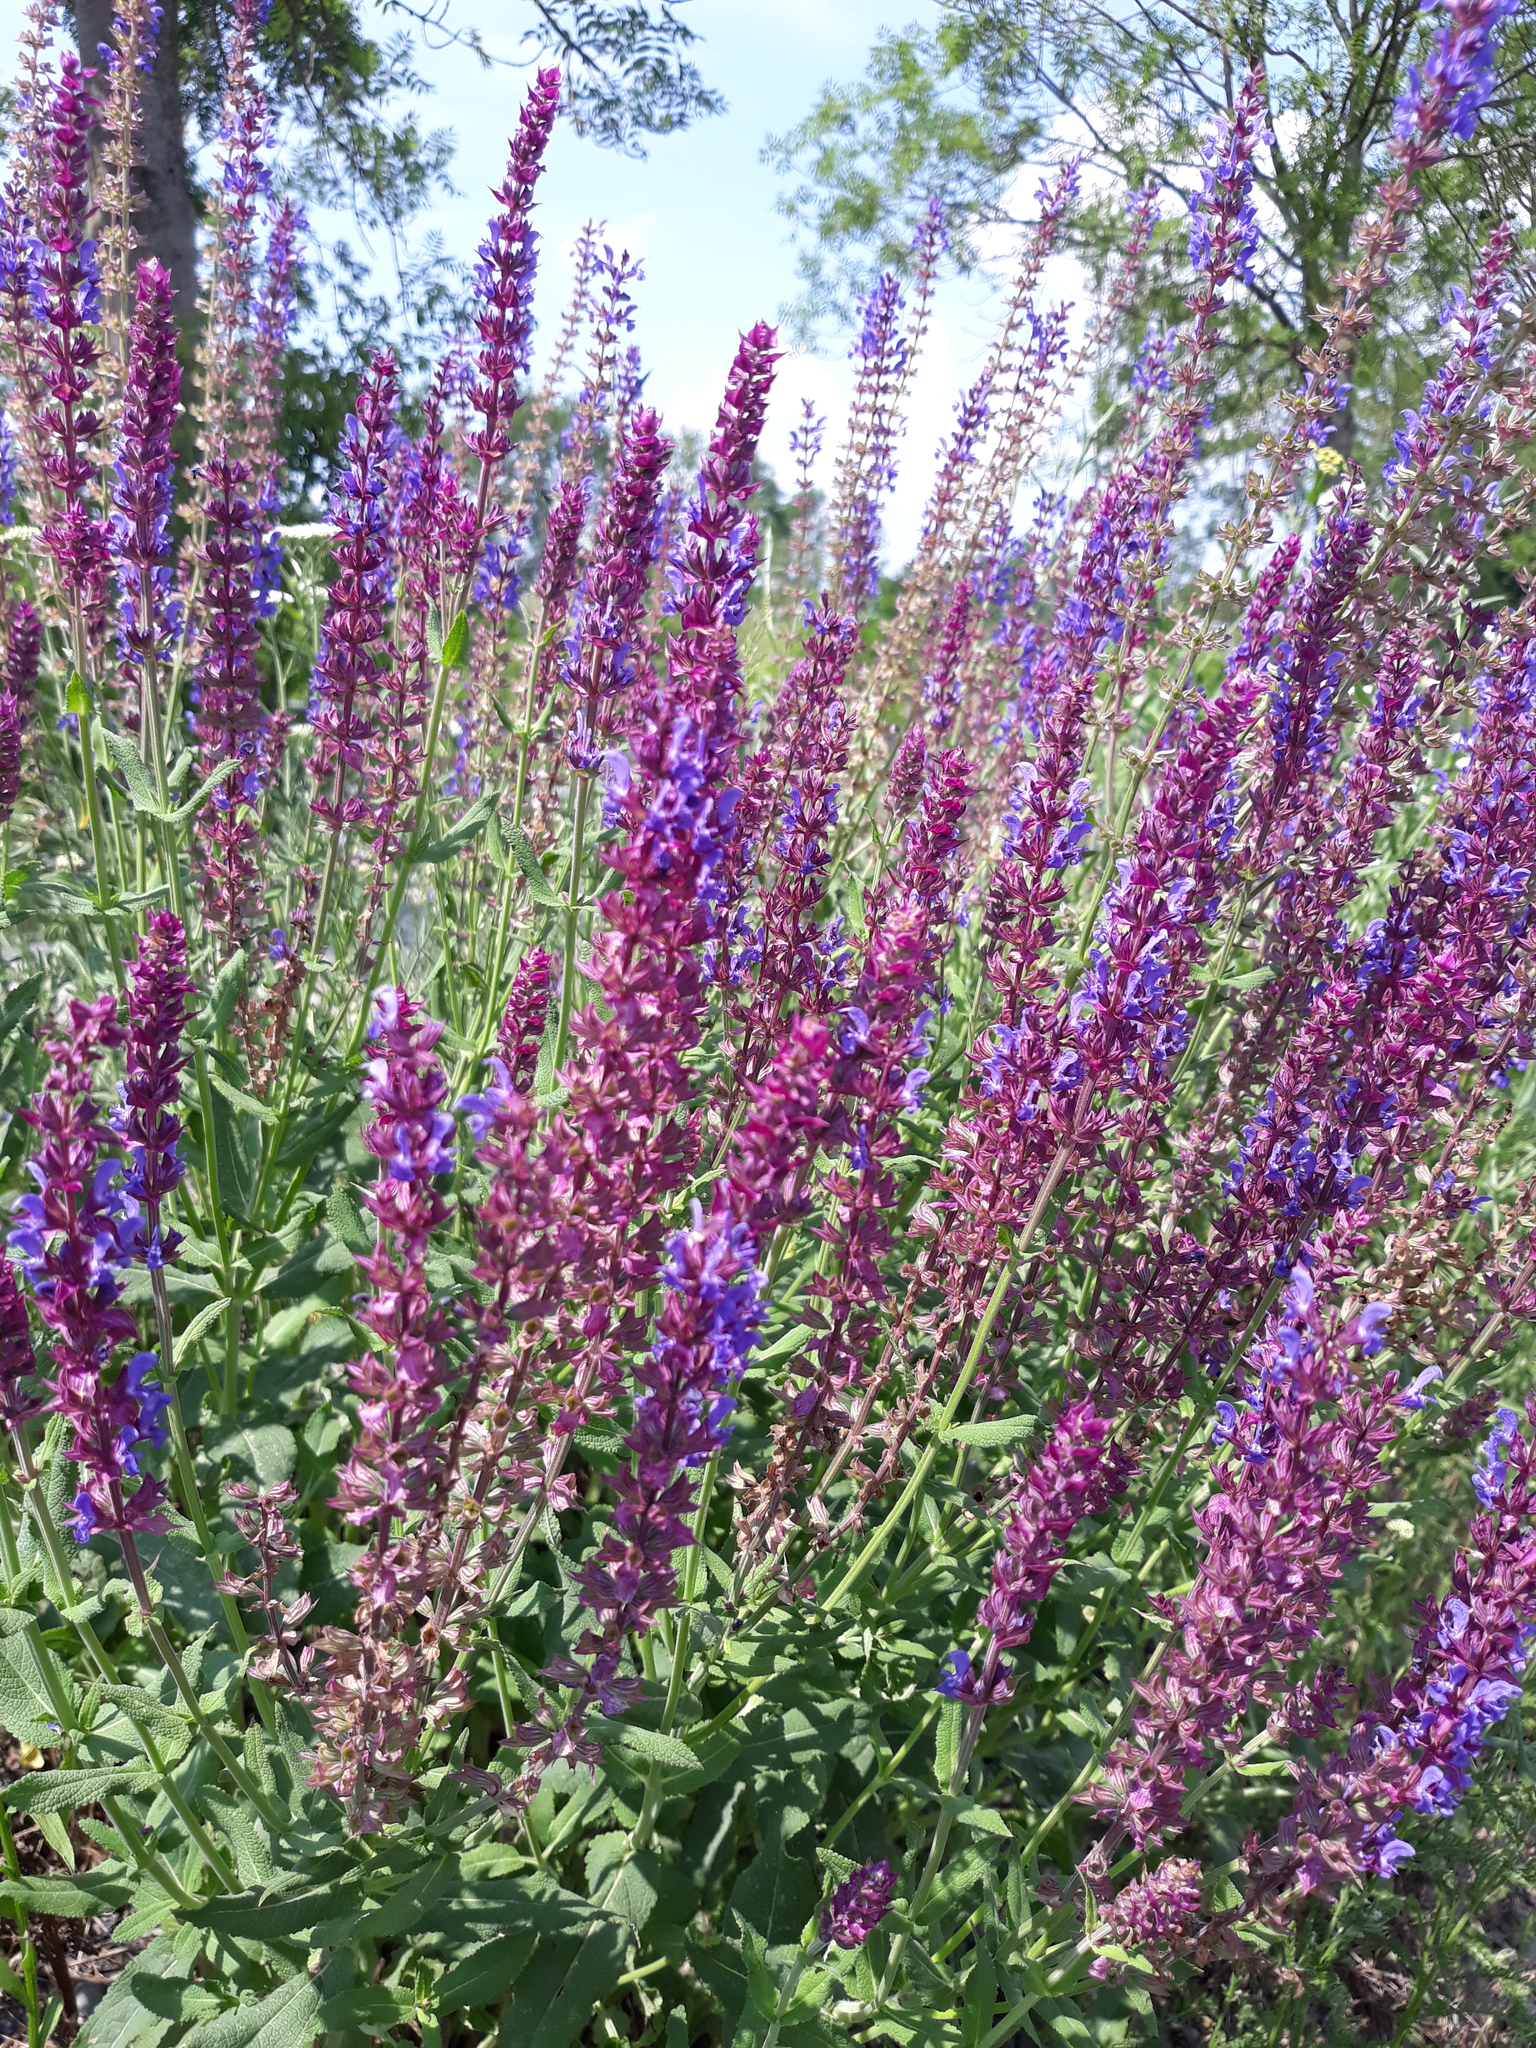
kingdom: Plantae
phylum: Tracheophyta
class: Magnoliopsida
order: Lamiales
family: Lamiaceae
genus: Salvia
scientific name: Salvia nemorosa
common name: Balkan clary
